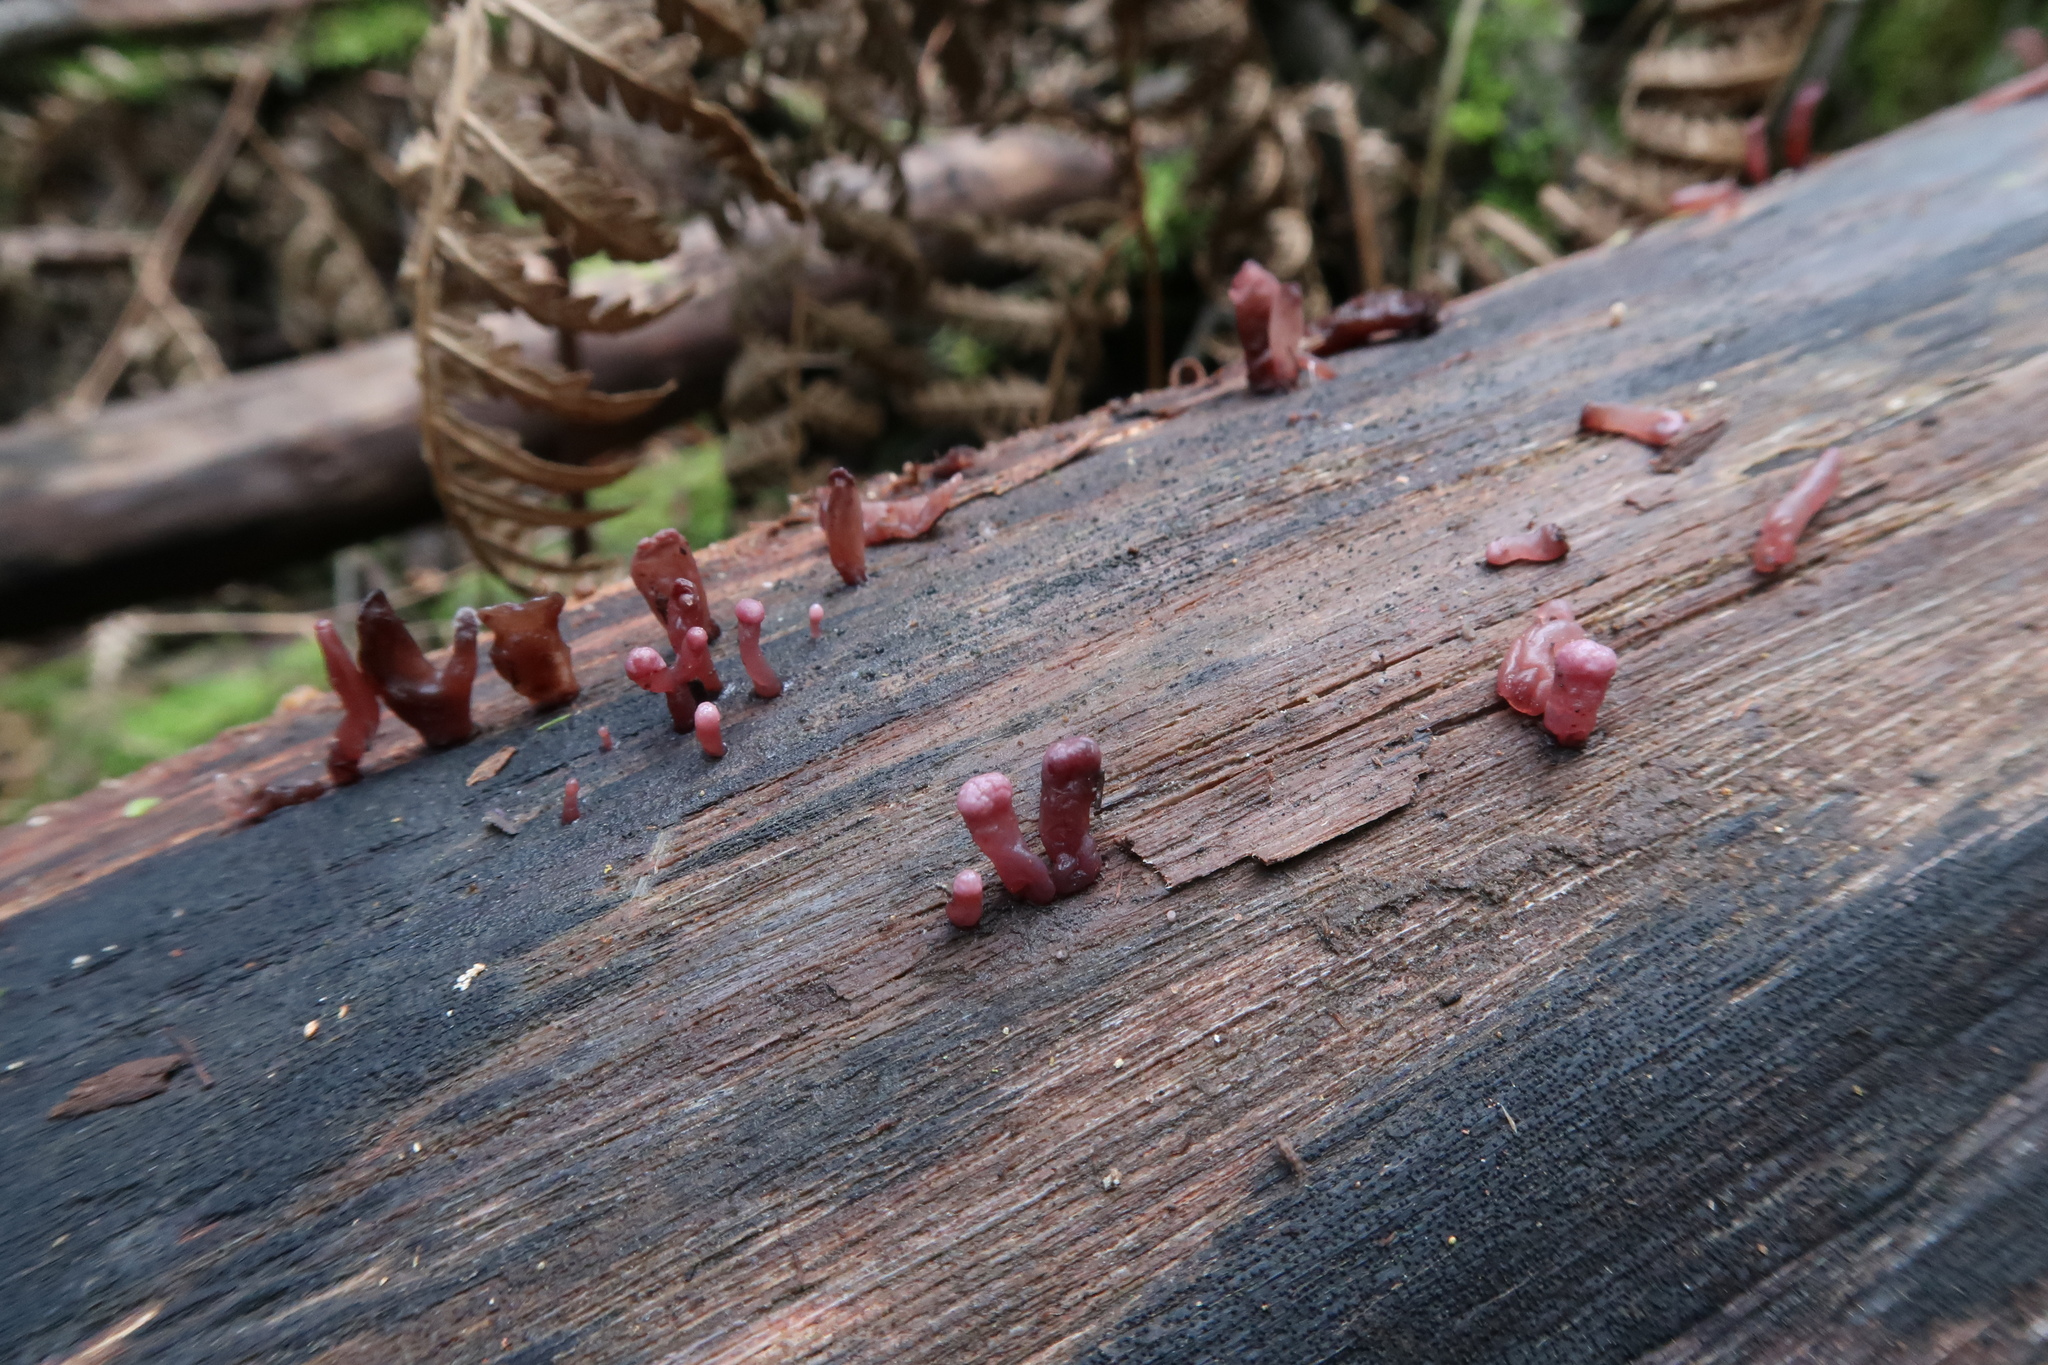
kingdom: Fungi
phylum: Ascomycota
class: Leotiomycetes
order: Helotiales
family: Gelatinodiscaceae
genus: Ascocoryne
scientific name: Ascocoryne sarcoides
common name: Purple jellydisc
